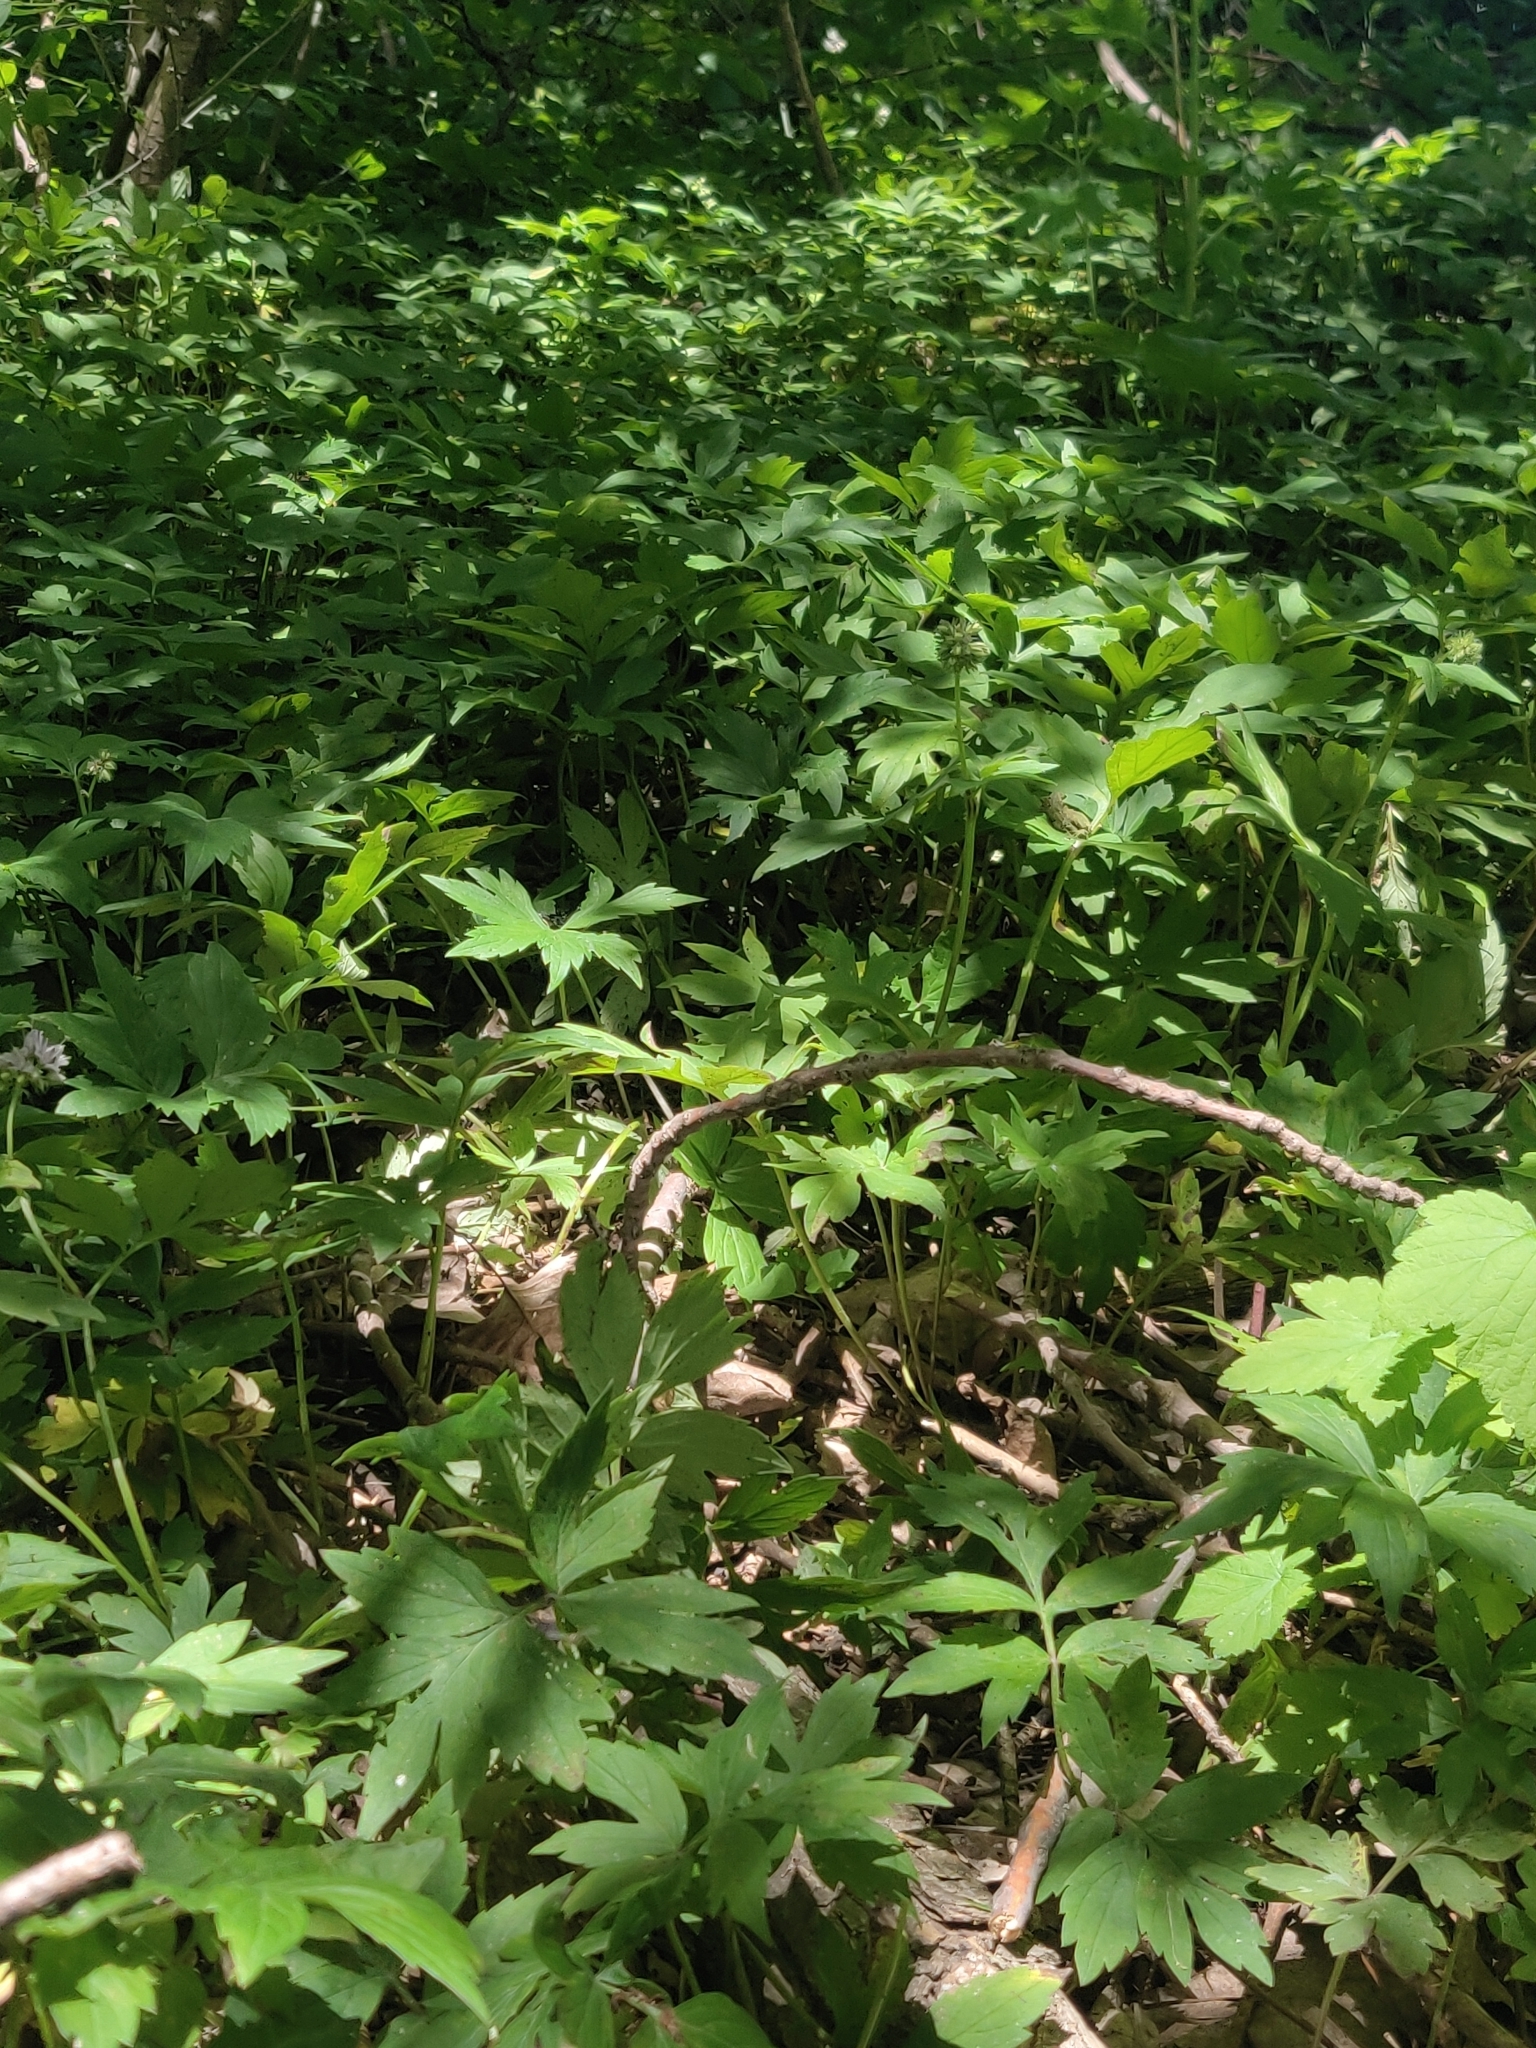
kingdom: Plantae
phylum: Tracheophyta
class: Magnoliopsida
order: Boraginales
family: Hydrophyllaceae
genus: Hydrophyllum
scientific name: Hydrophyllum virginianum
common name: Virginia waterleaf
